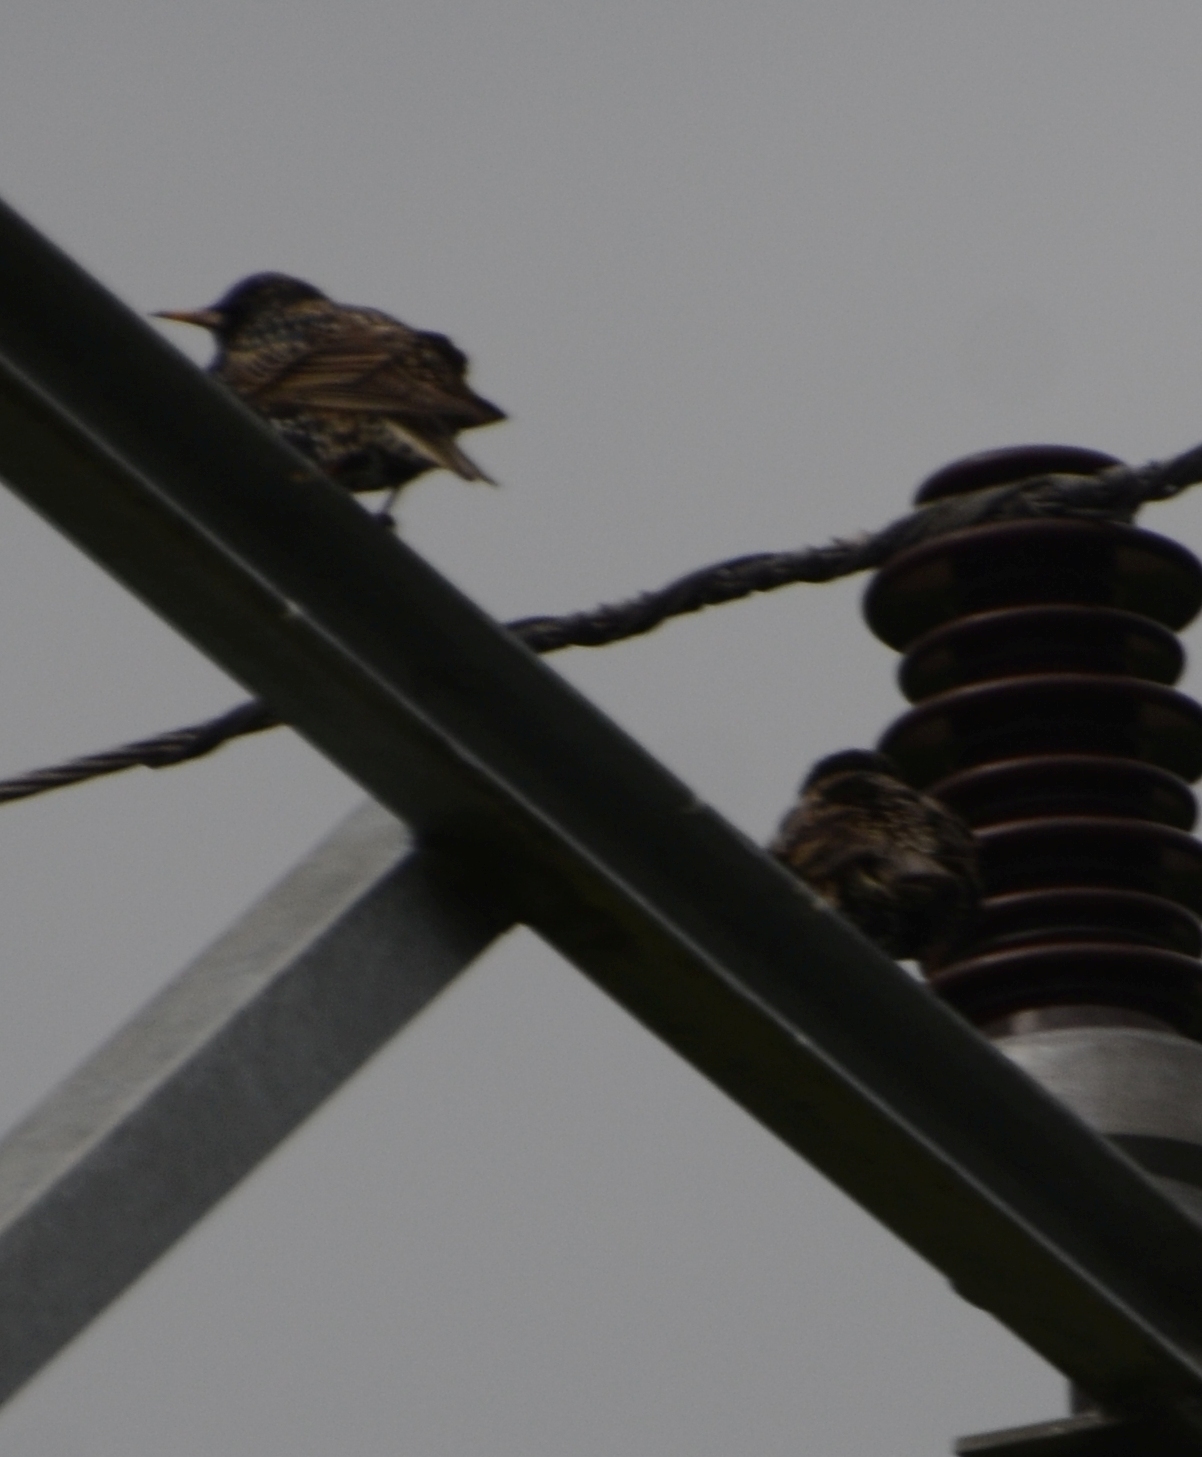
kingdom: Animalia
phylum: Chordata
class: Aves
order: Passeriformes
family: Sturnidae
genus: Sturnus
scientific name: Sturnus vulgaris
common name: Common starling
